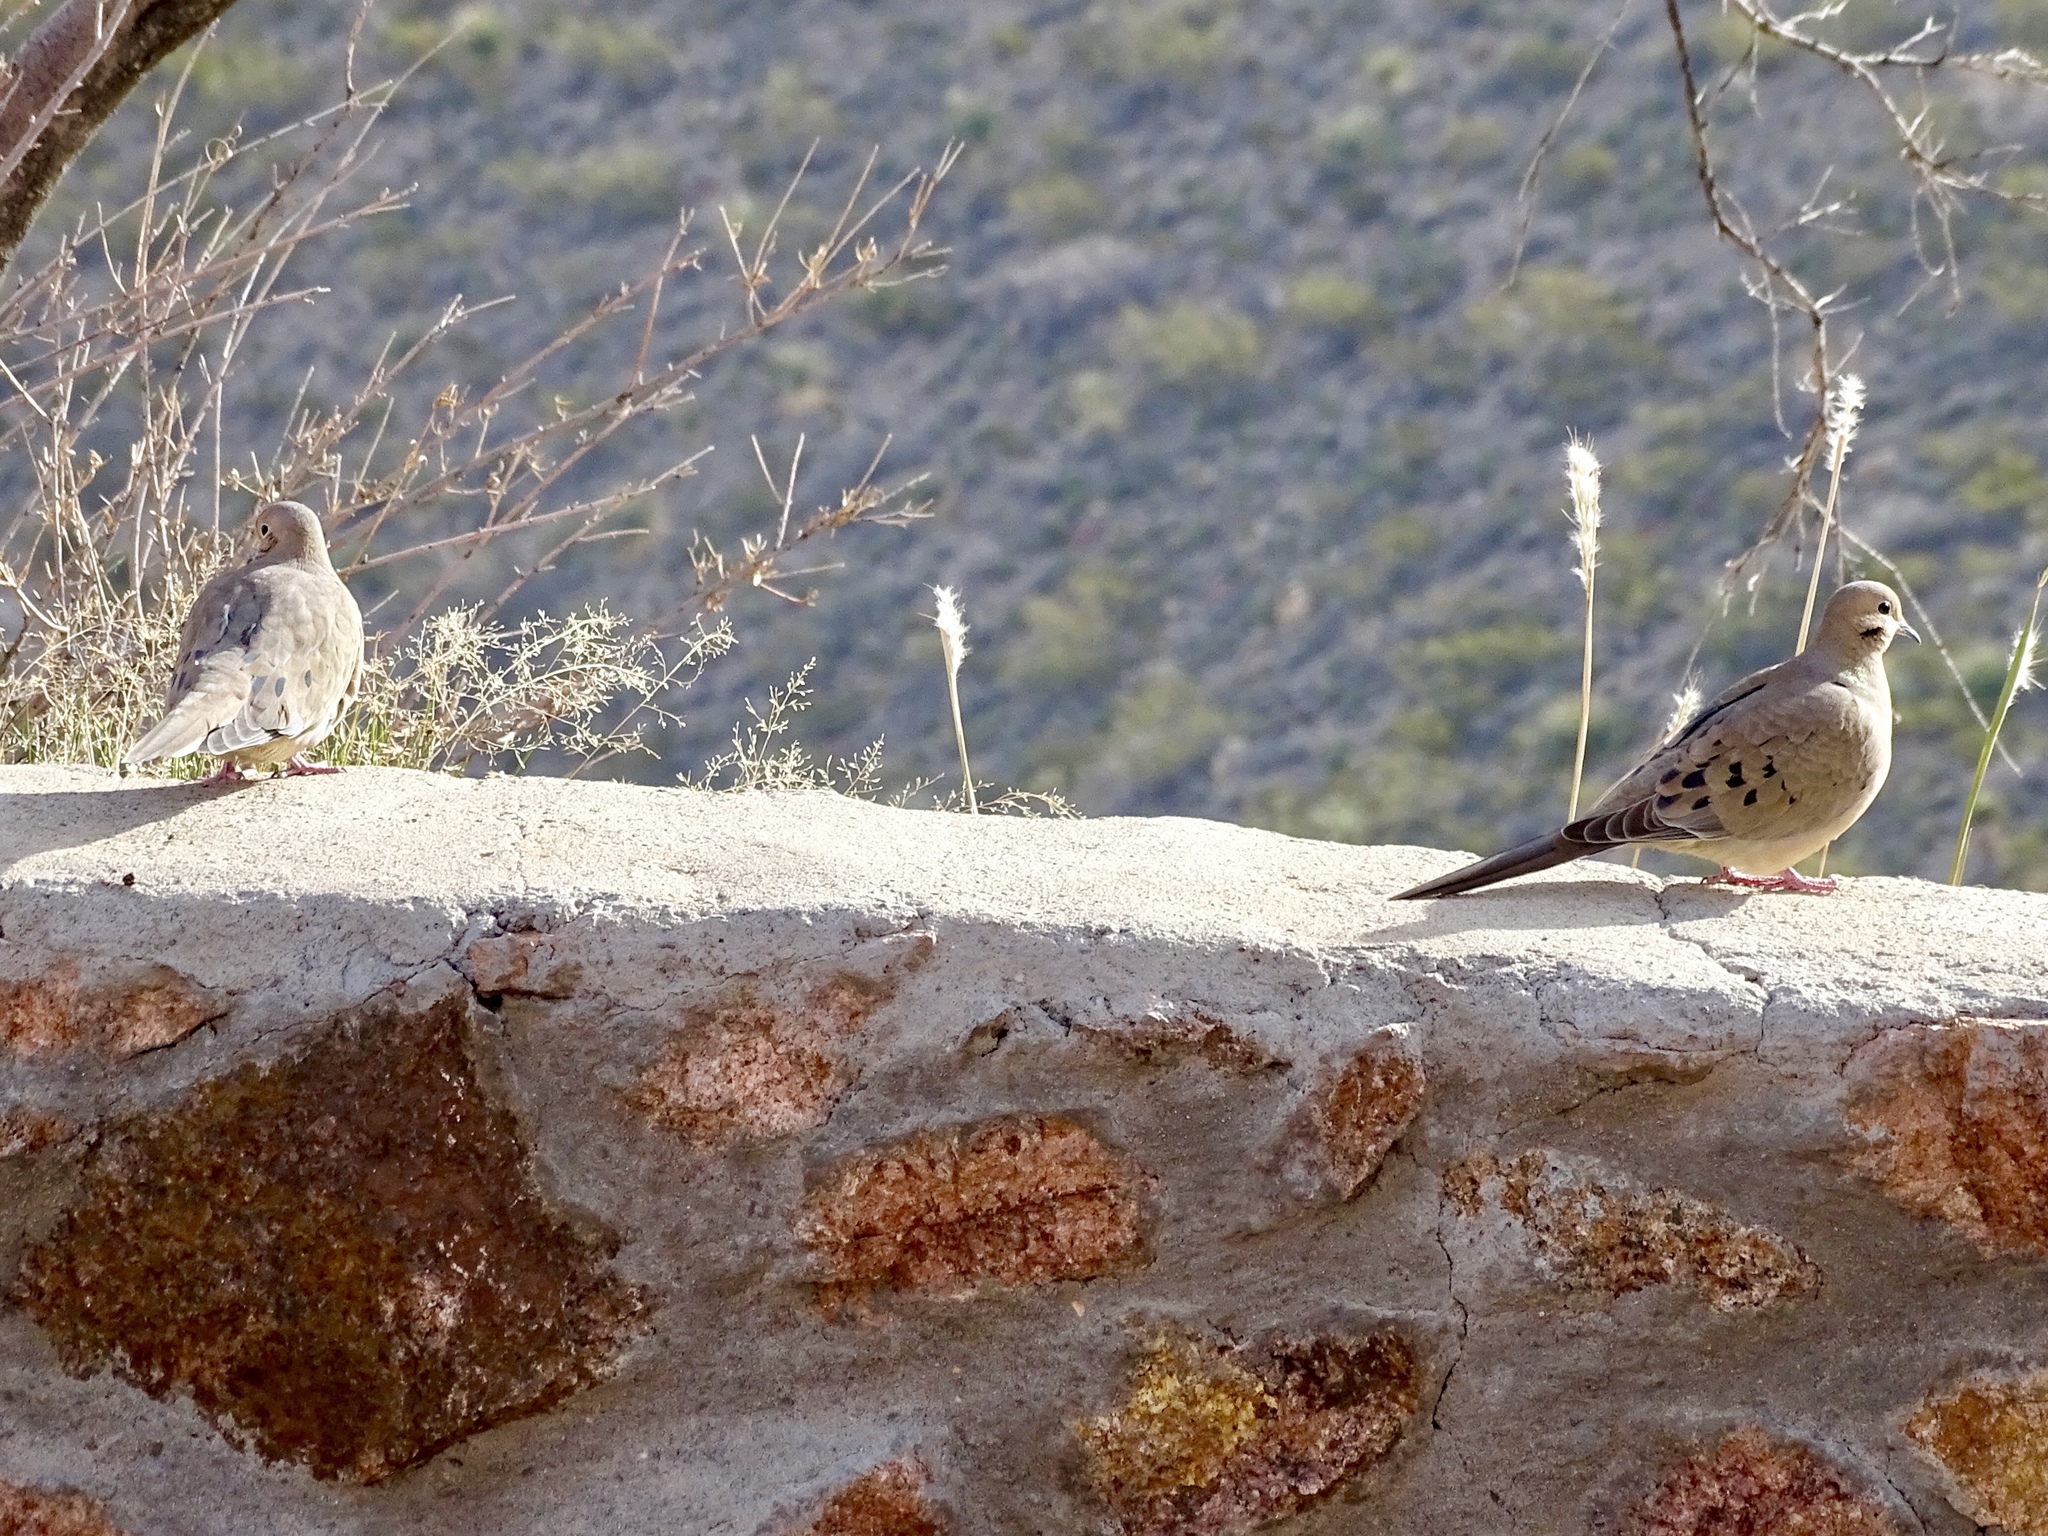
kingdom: Animalia
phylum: Chordata
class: Aves
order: Columbiformes
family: Columbidae
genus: Zenaida
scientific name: Zenaida macroura
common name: Mourning dove
